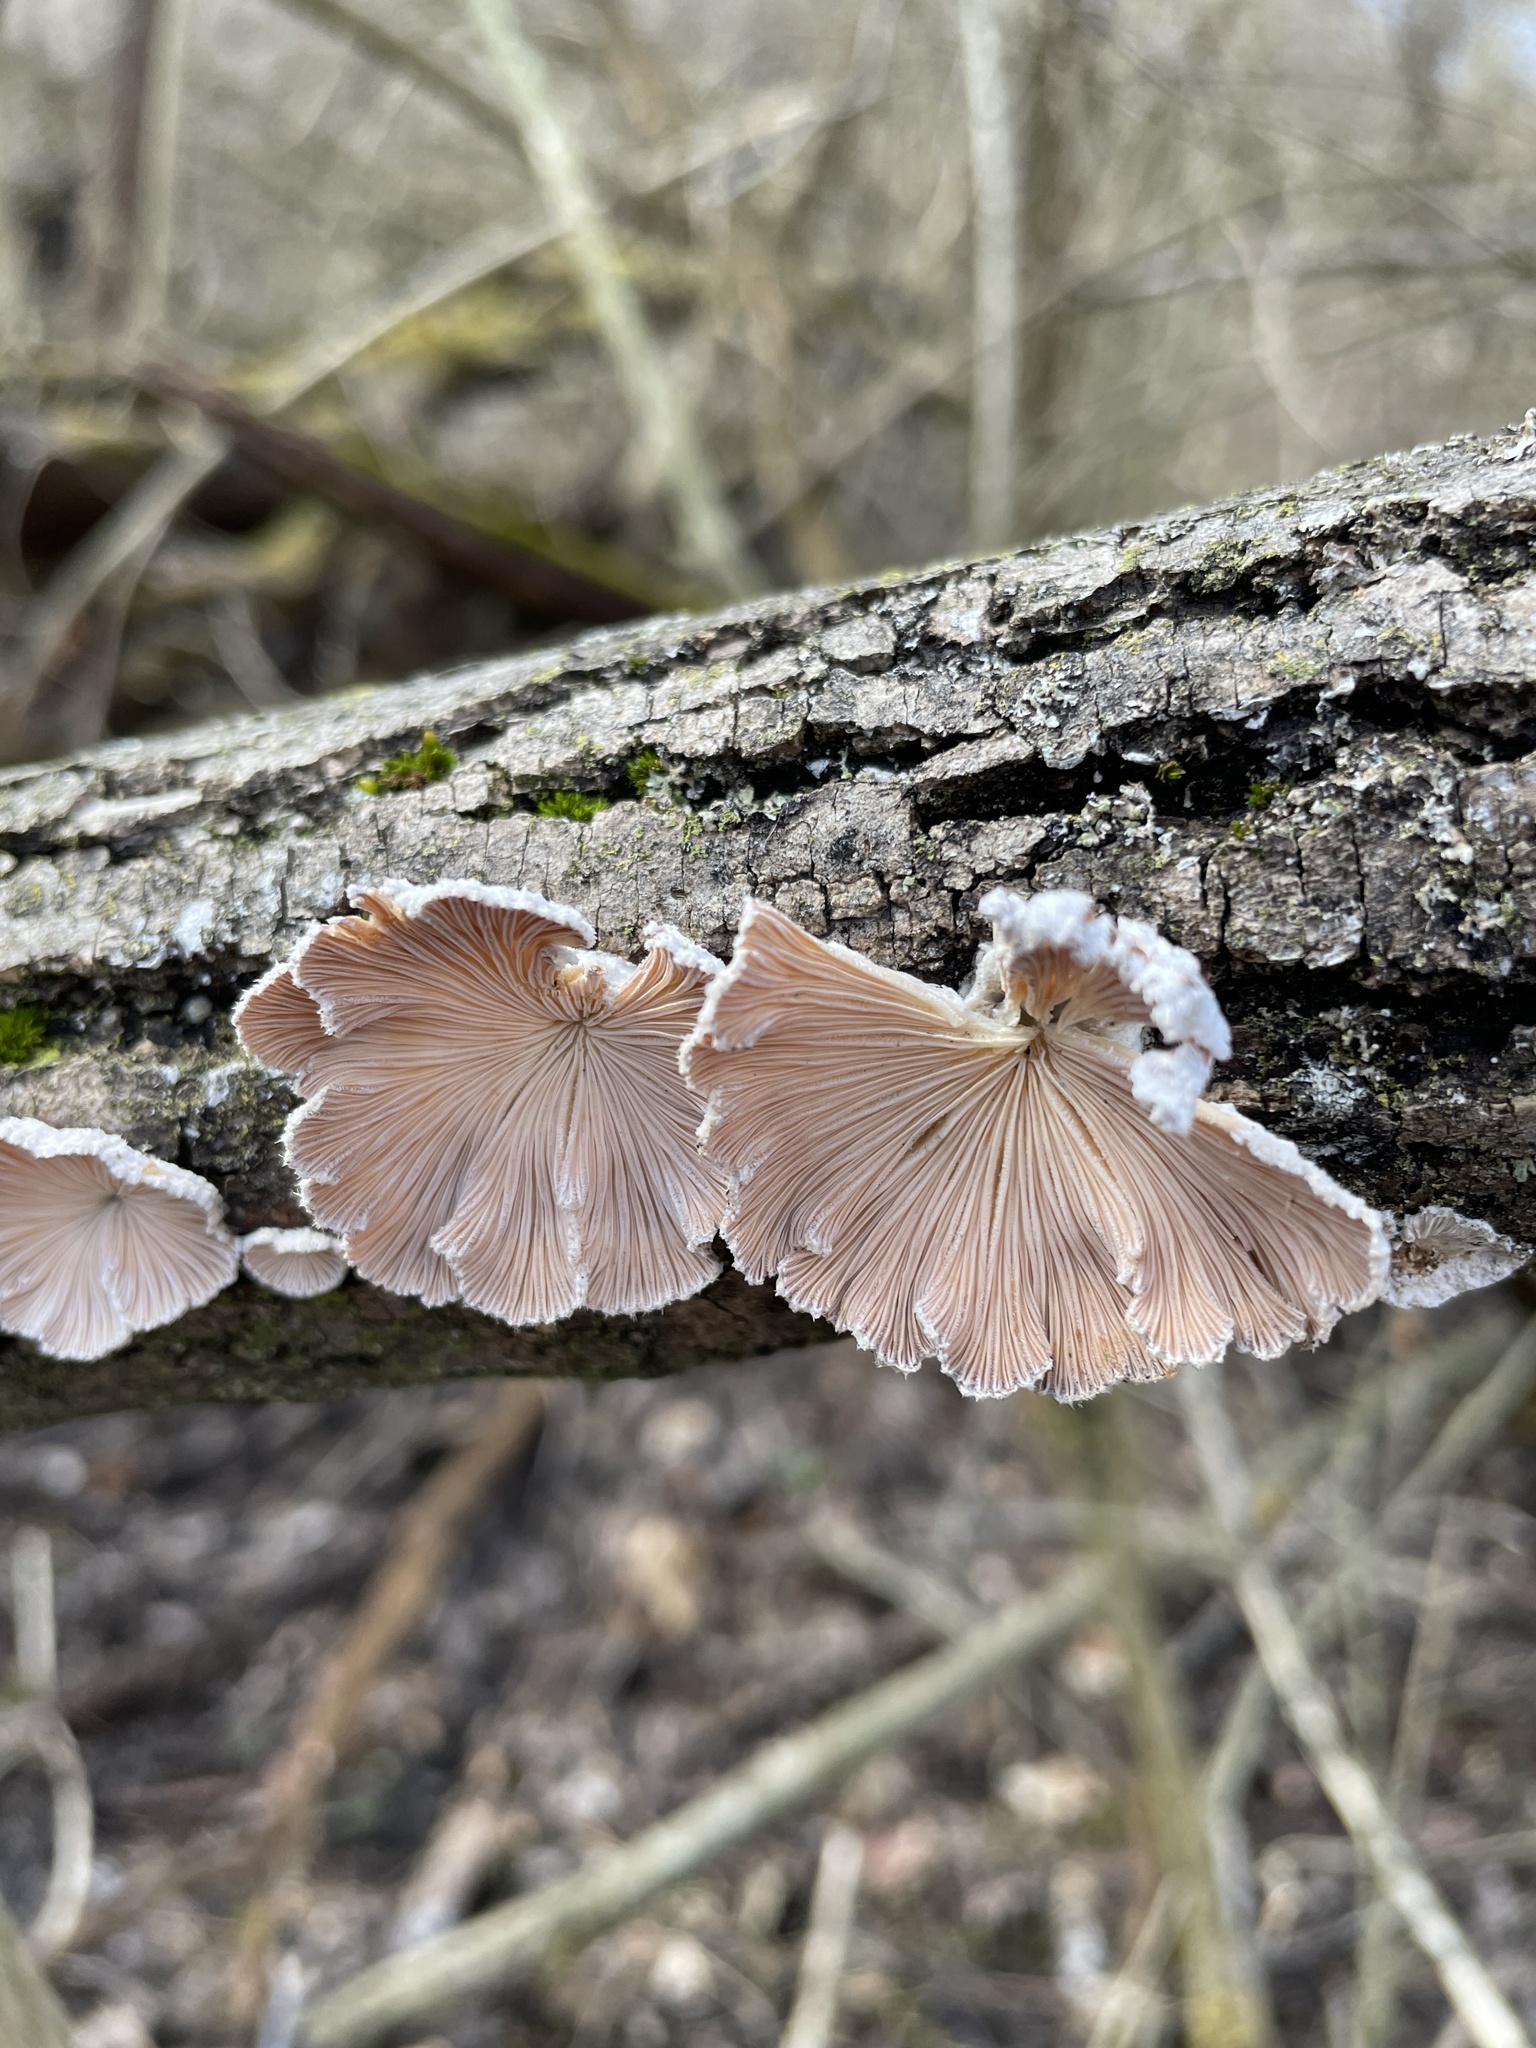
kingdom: Fungi
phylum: Basidiomycota
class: Agaricomycetes
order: Agaricales
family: Schizophyllaceae
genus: Schizophyllum
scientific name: Schizophyllum commune
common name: Common porecrust
